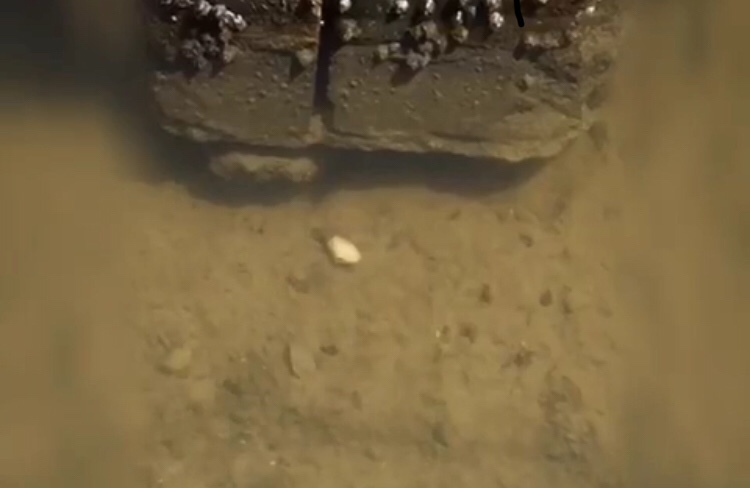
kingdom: Animalia
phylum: Mollusca
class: Bivalvia
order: Myida
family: Myidae
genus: Mya
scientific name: Mya arenaria
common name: Soft-shelled clam
